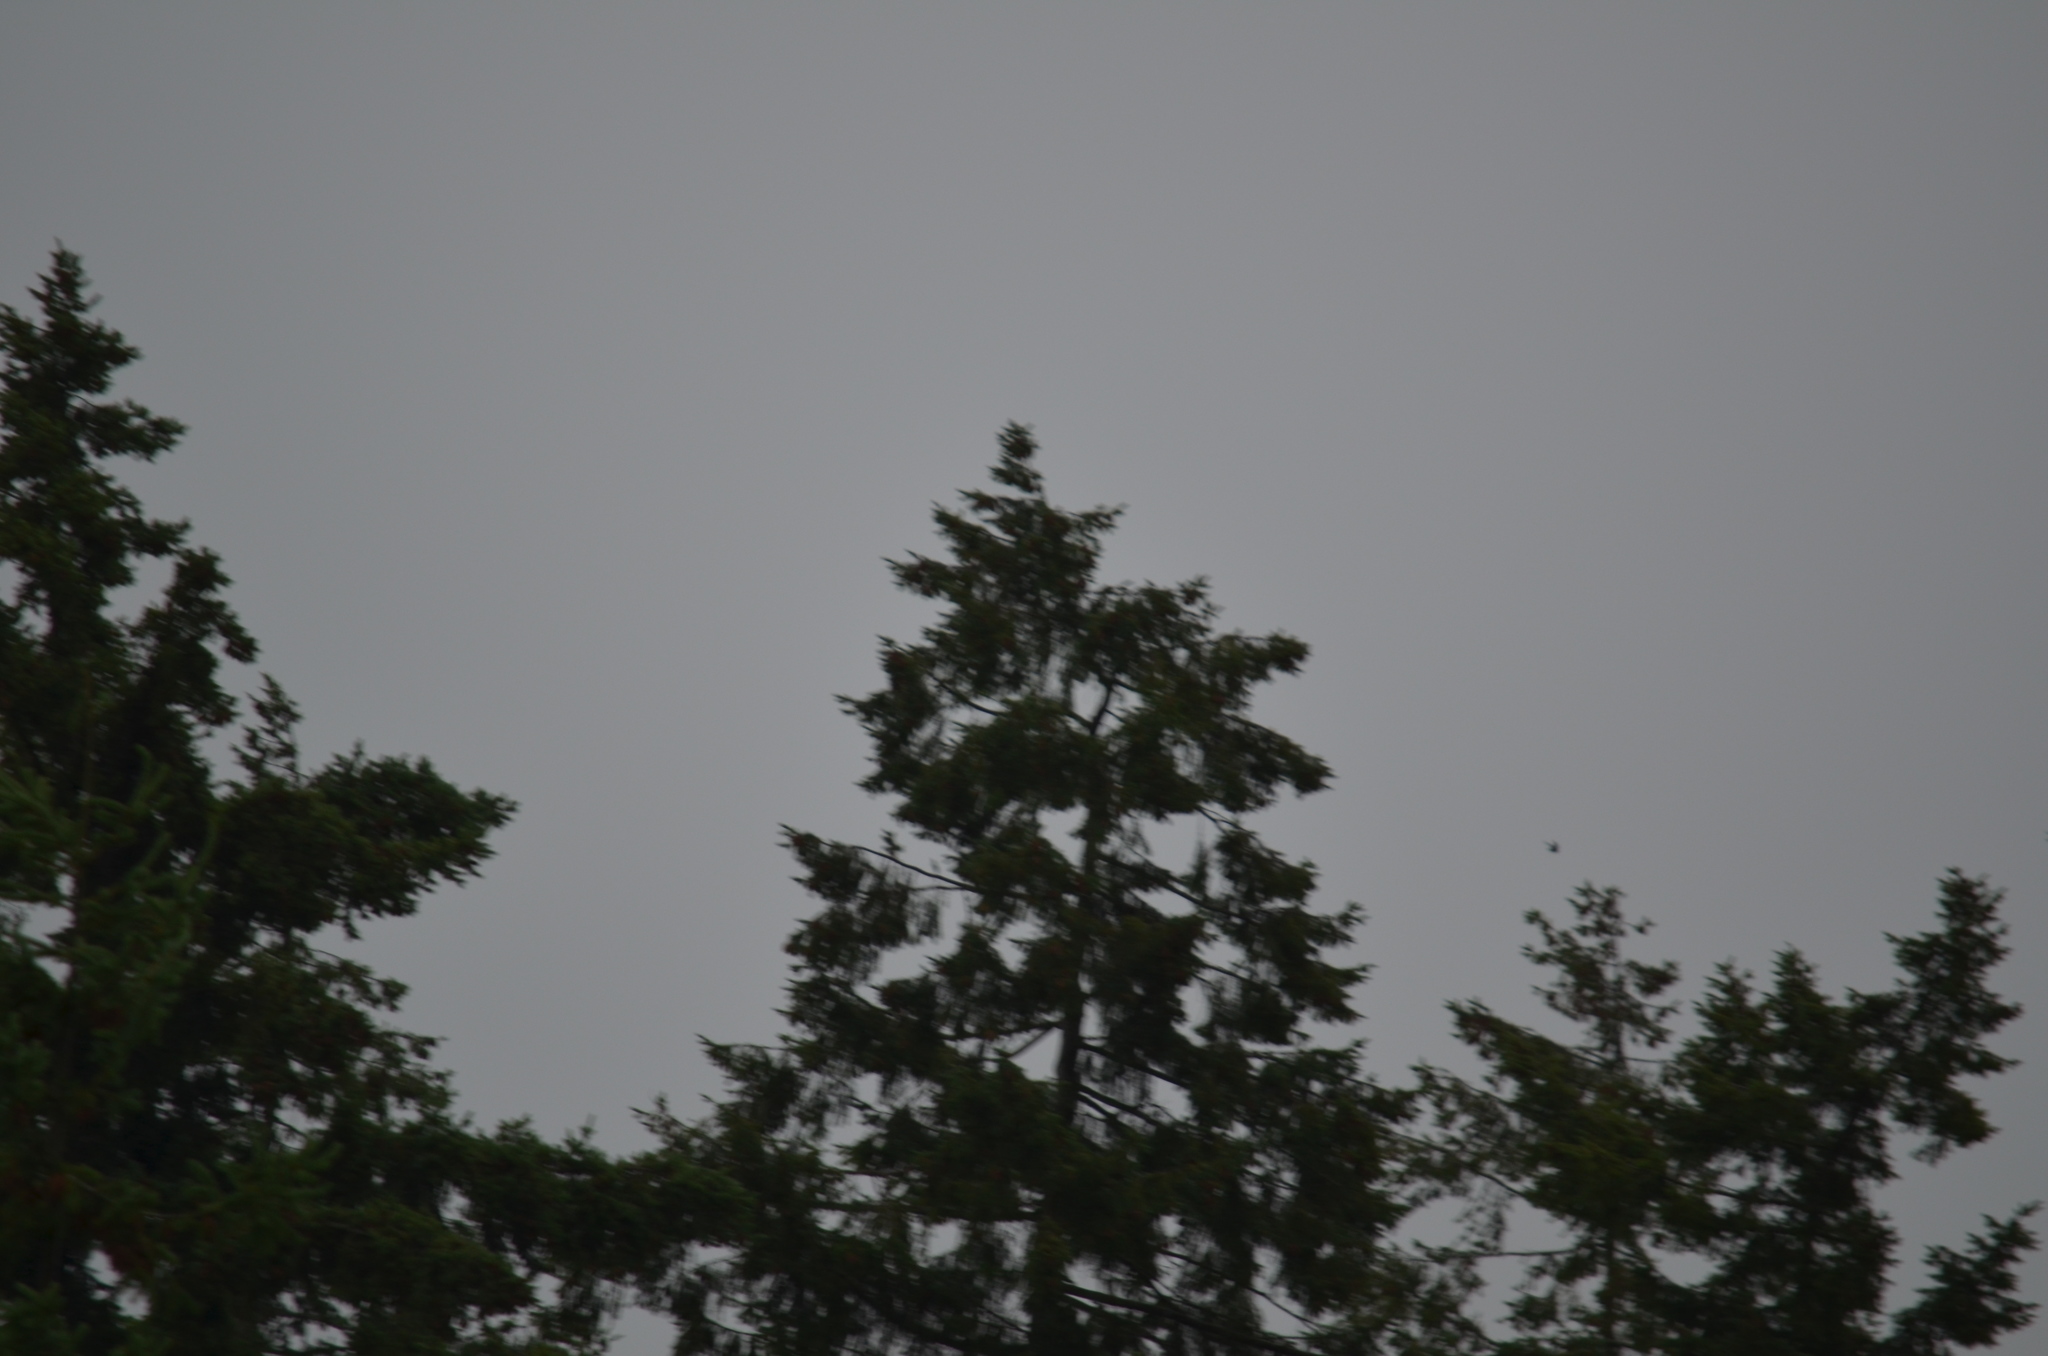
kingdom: Animalia
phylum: Chordata
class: Aves
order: Caprimulgiformes
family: Caprimulgidae
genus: Chordeiles
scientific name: Chordeiles minor
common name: Common nighthawk
